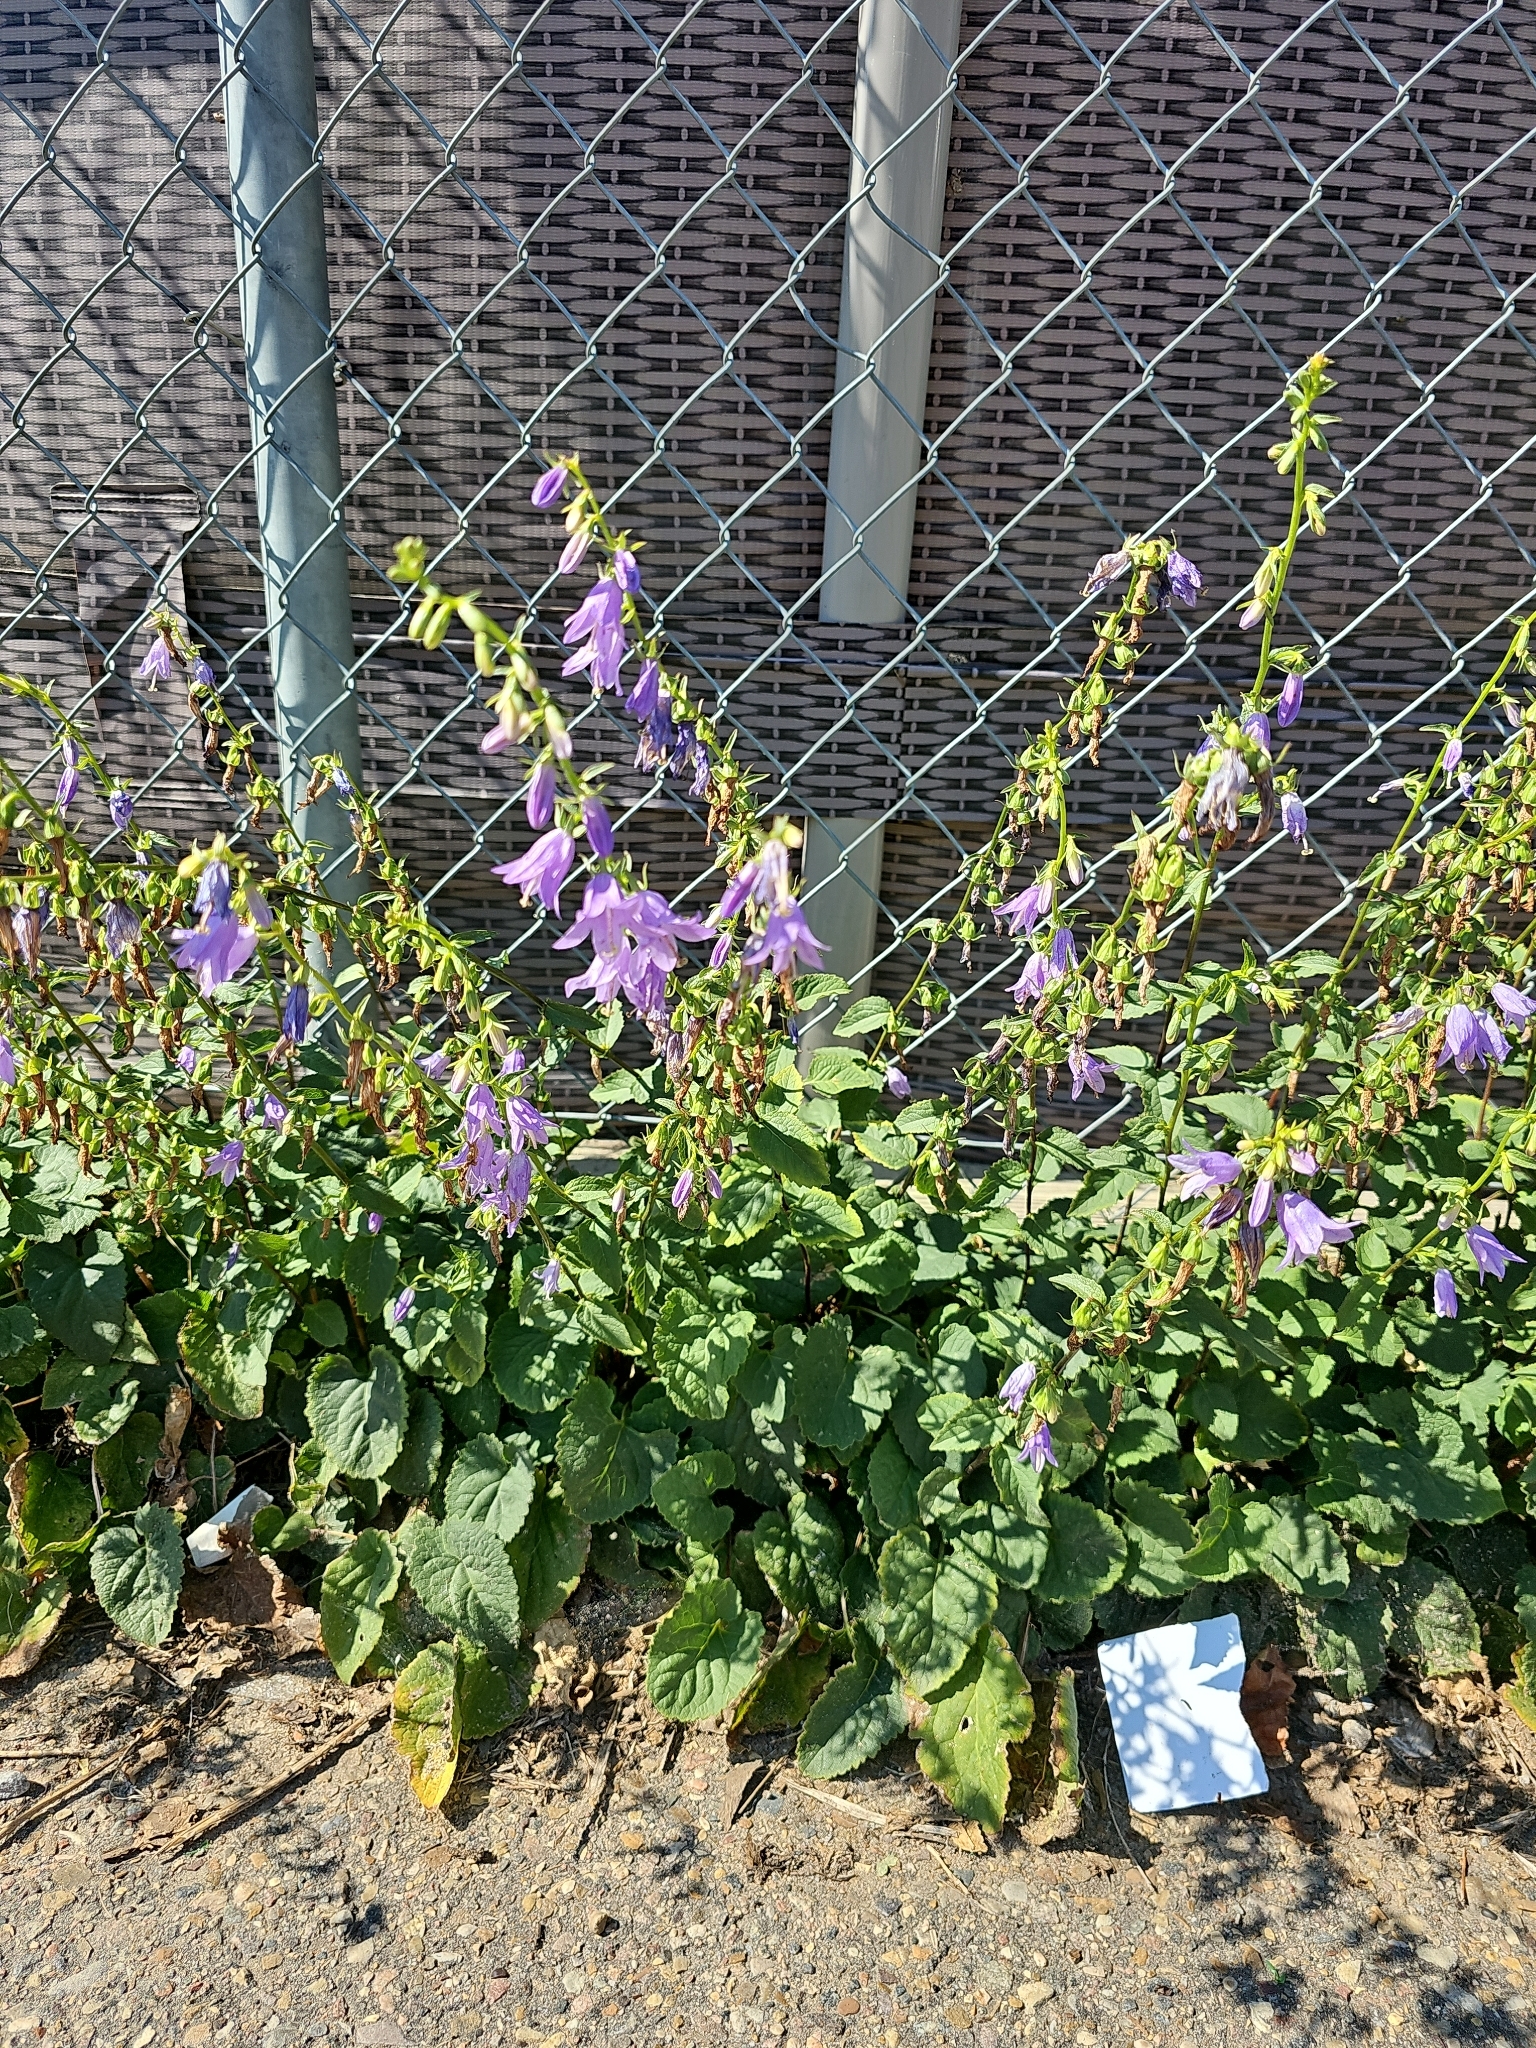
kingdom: Plantae
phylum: Tracheophyta
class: Magnoliopsida
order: Asterales
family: Campanulaceae
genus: Campanula
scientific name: Campanula rapunculoides
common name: Creeping bellflower
